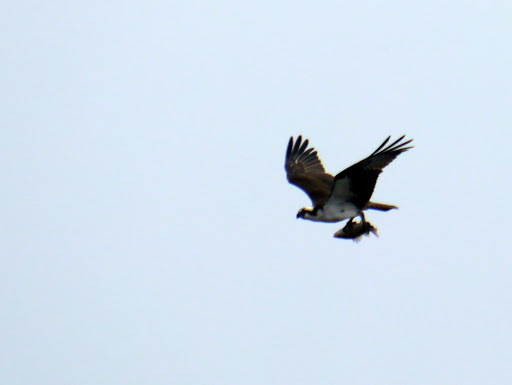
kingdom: Animalia
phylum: Chordata
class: Aves
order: Accipitriformes
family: Pandionidae
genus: Pandion
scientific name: Pandion haliaetus
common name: Osprey
